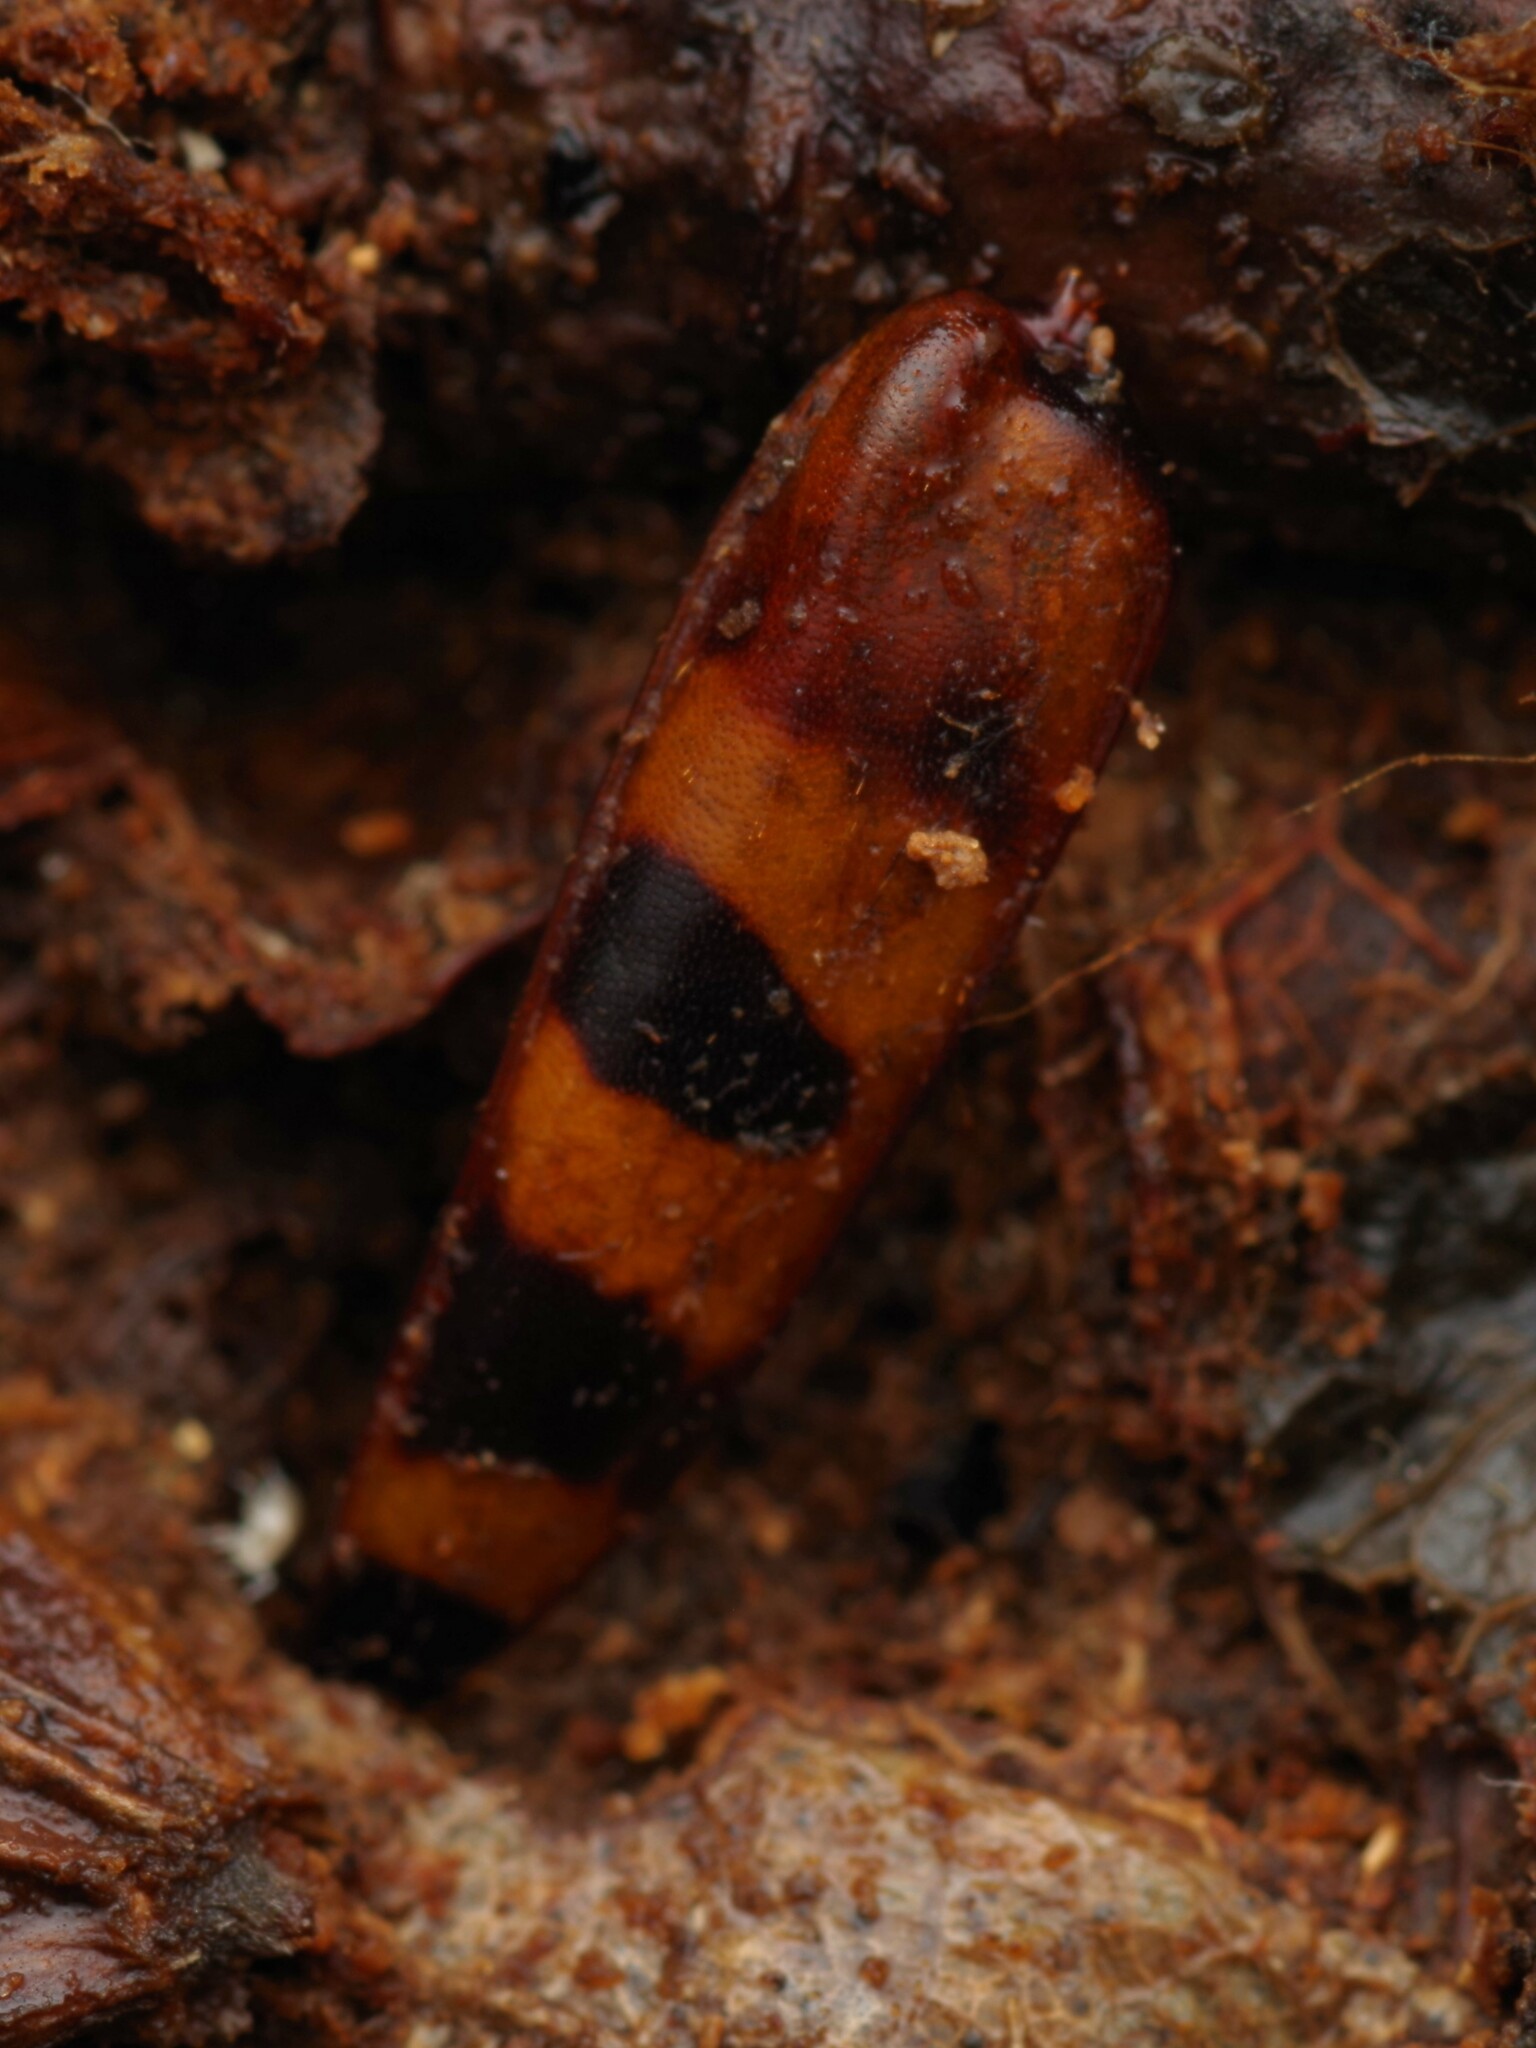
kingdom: Animalia
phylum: Arthropoda
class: Insecta
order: Coleoptera
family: Cerambycidae
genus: Leptura
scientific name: Leptura aurulenta
